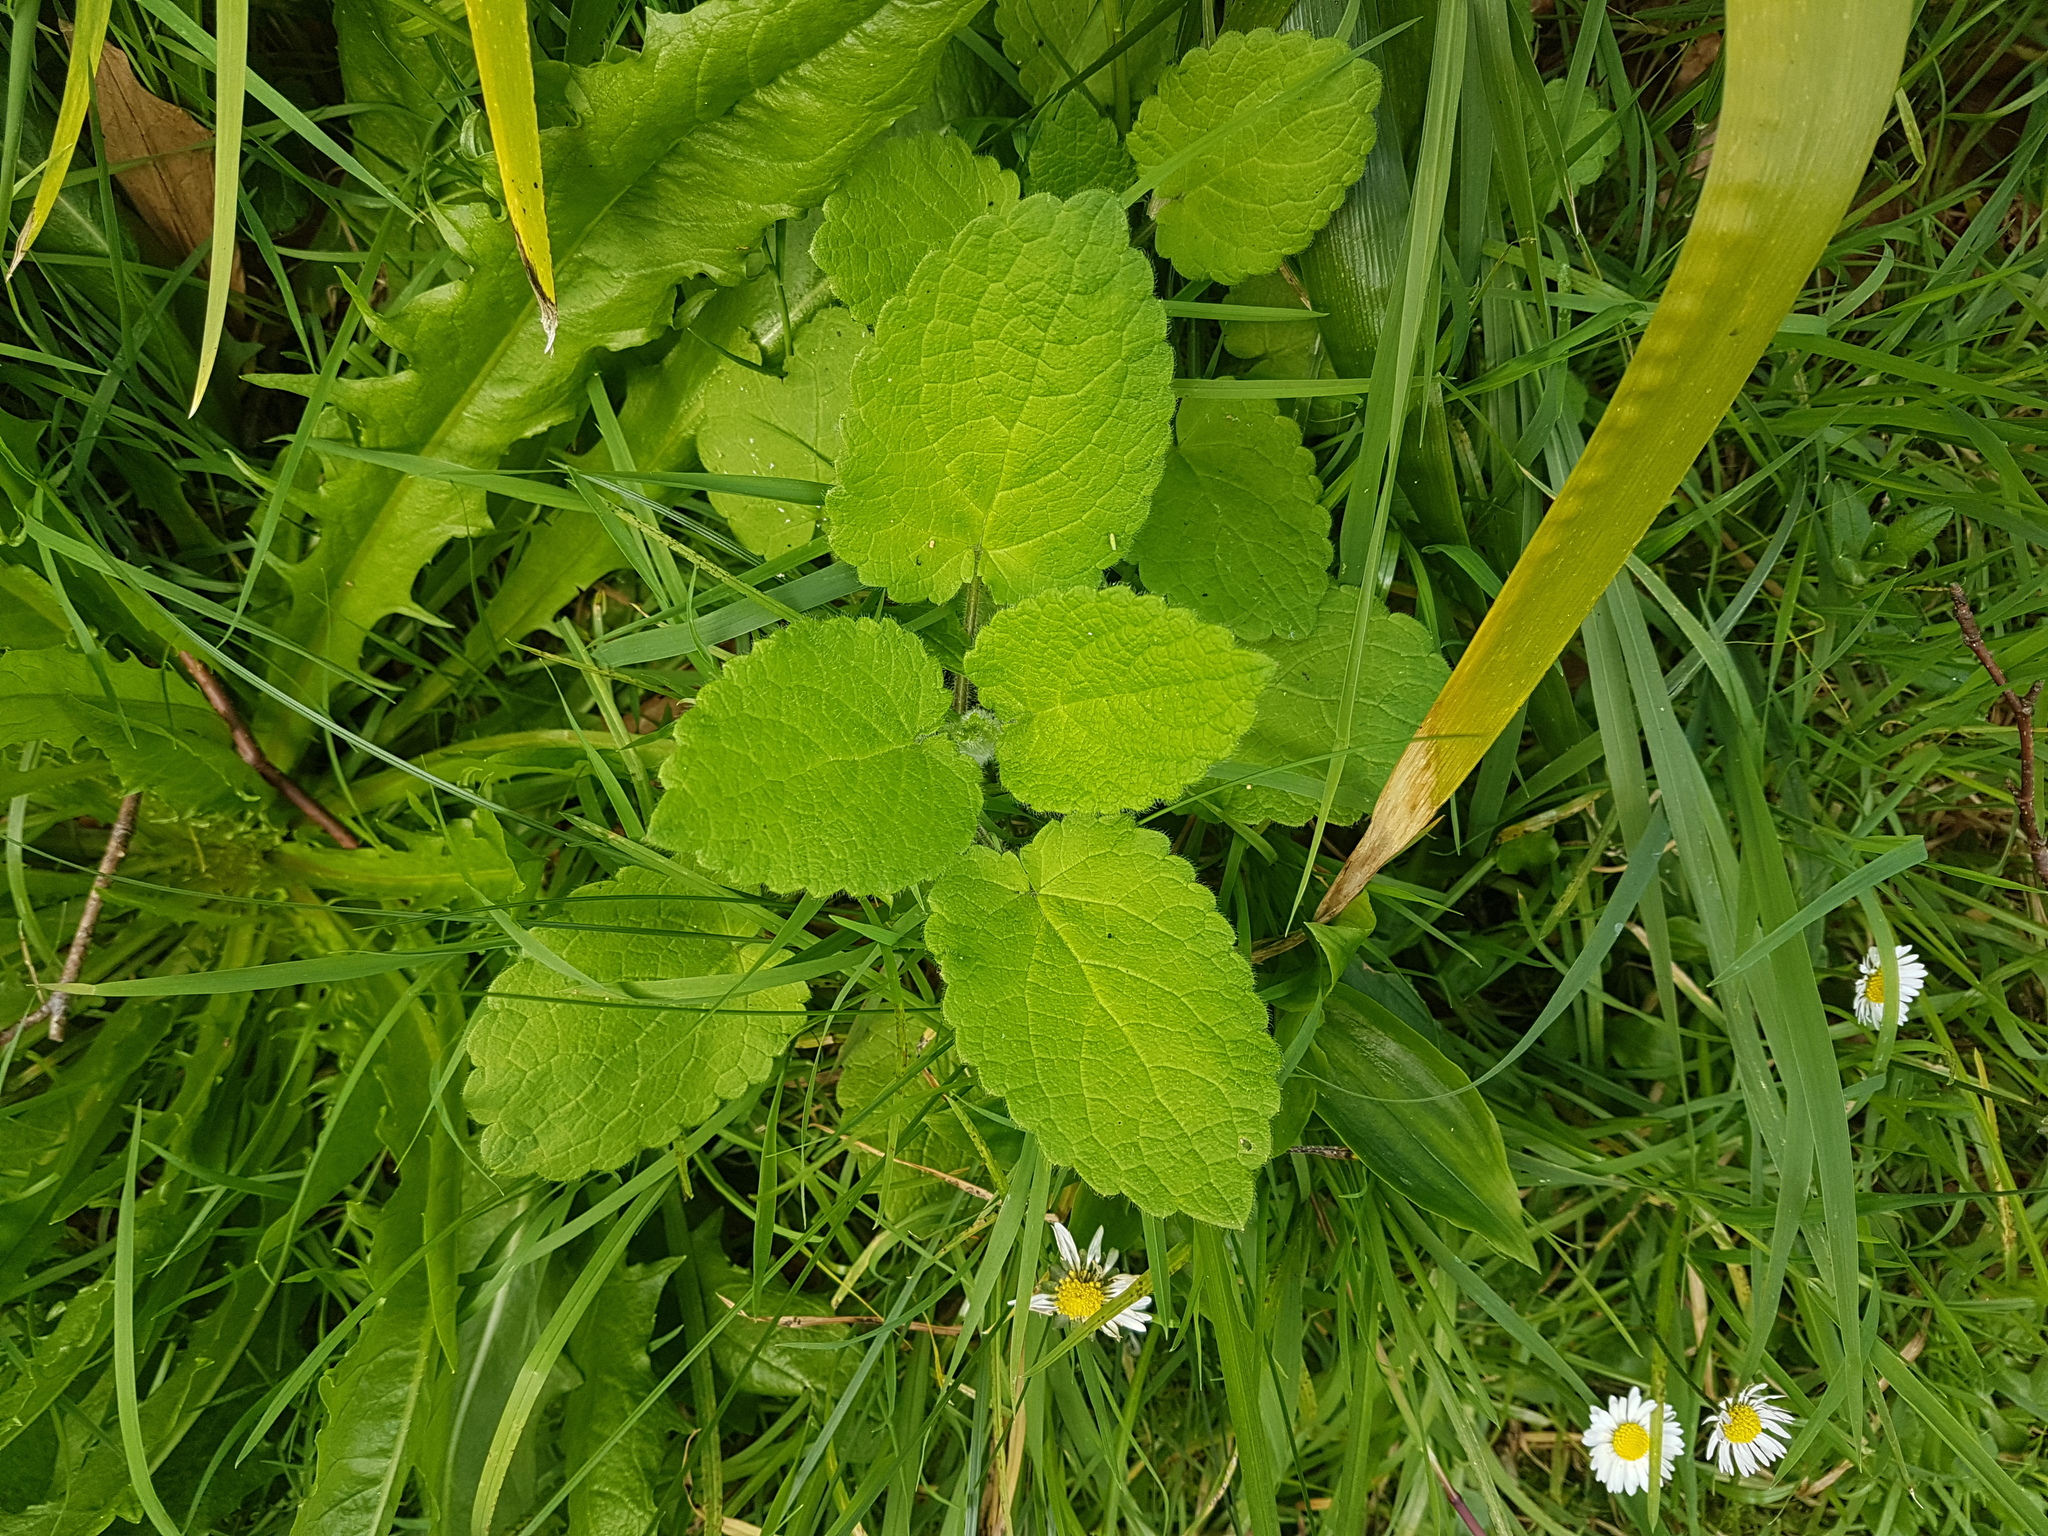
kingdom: Plantae
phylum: Tracheophyta
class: Magnoliopsida
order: Lamiales
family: Lamiaceae
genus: Stachys
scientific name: Stachys sylvatica
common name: Hedge woundwort
